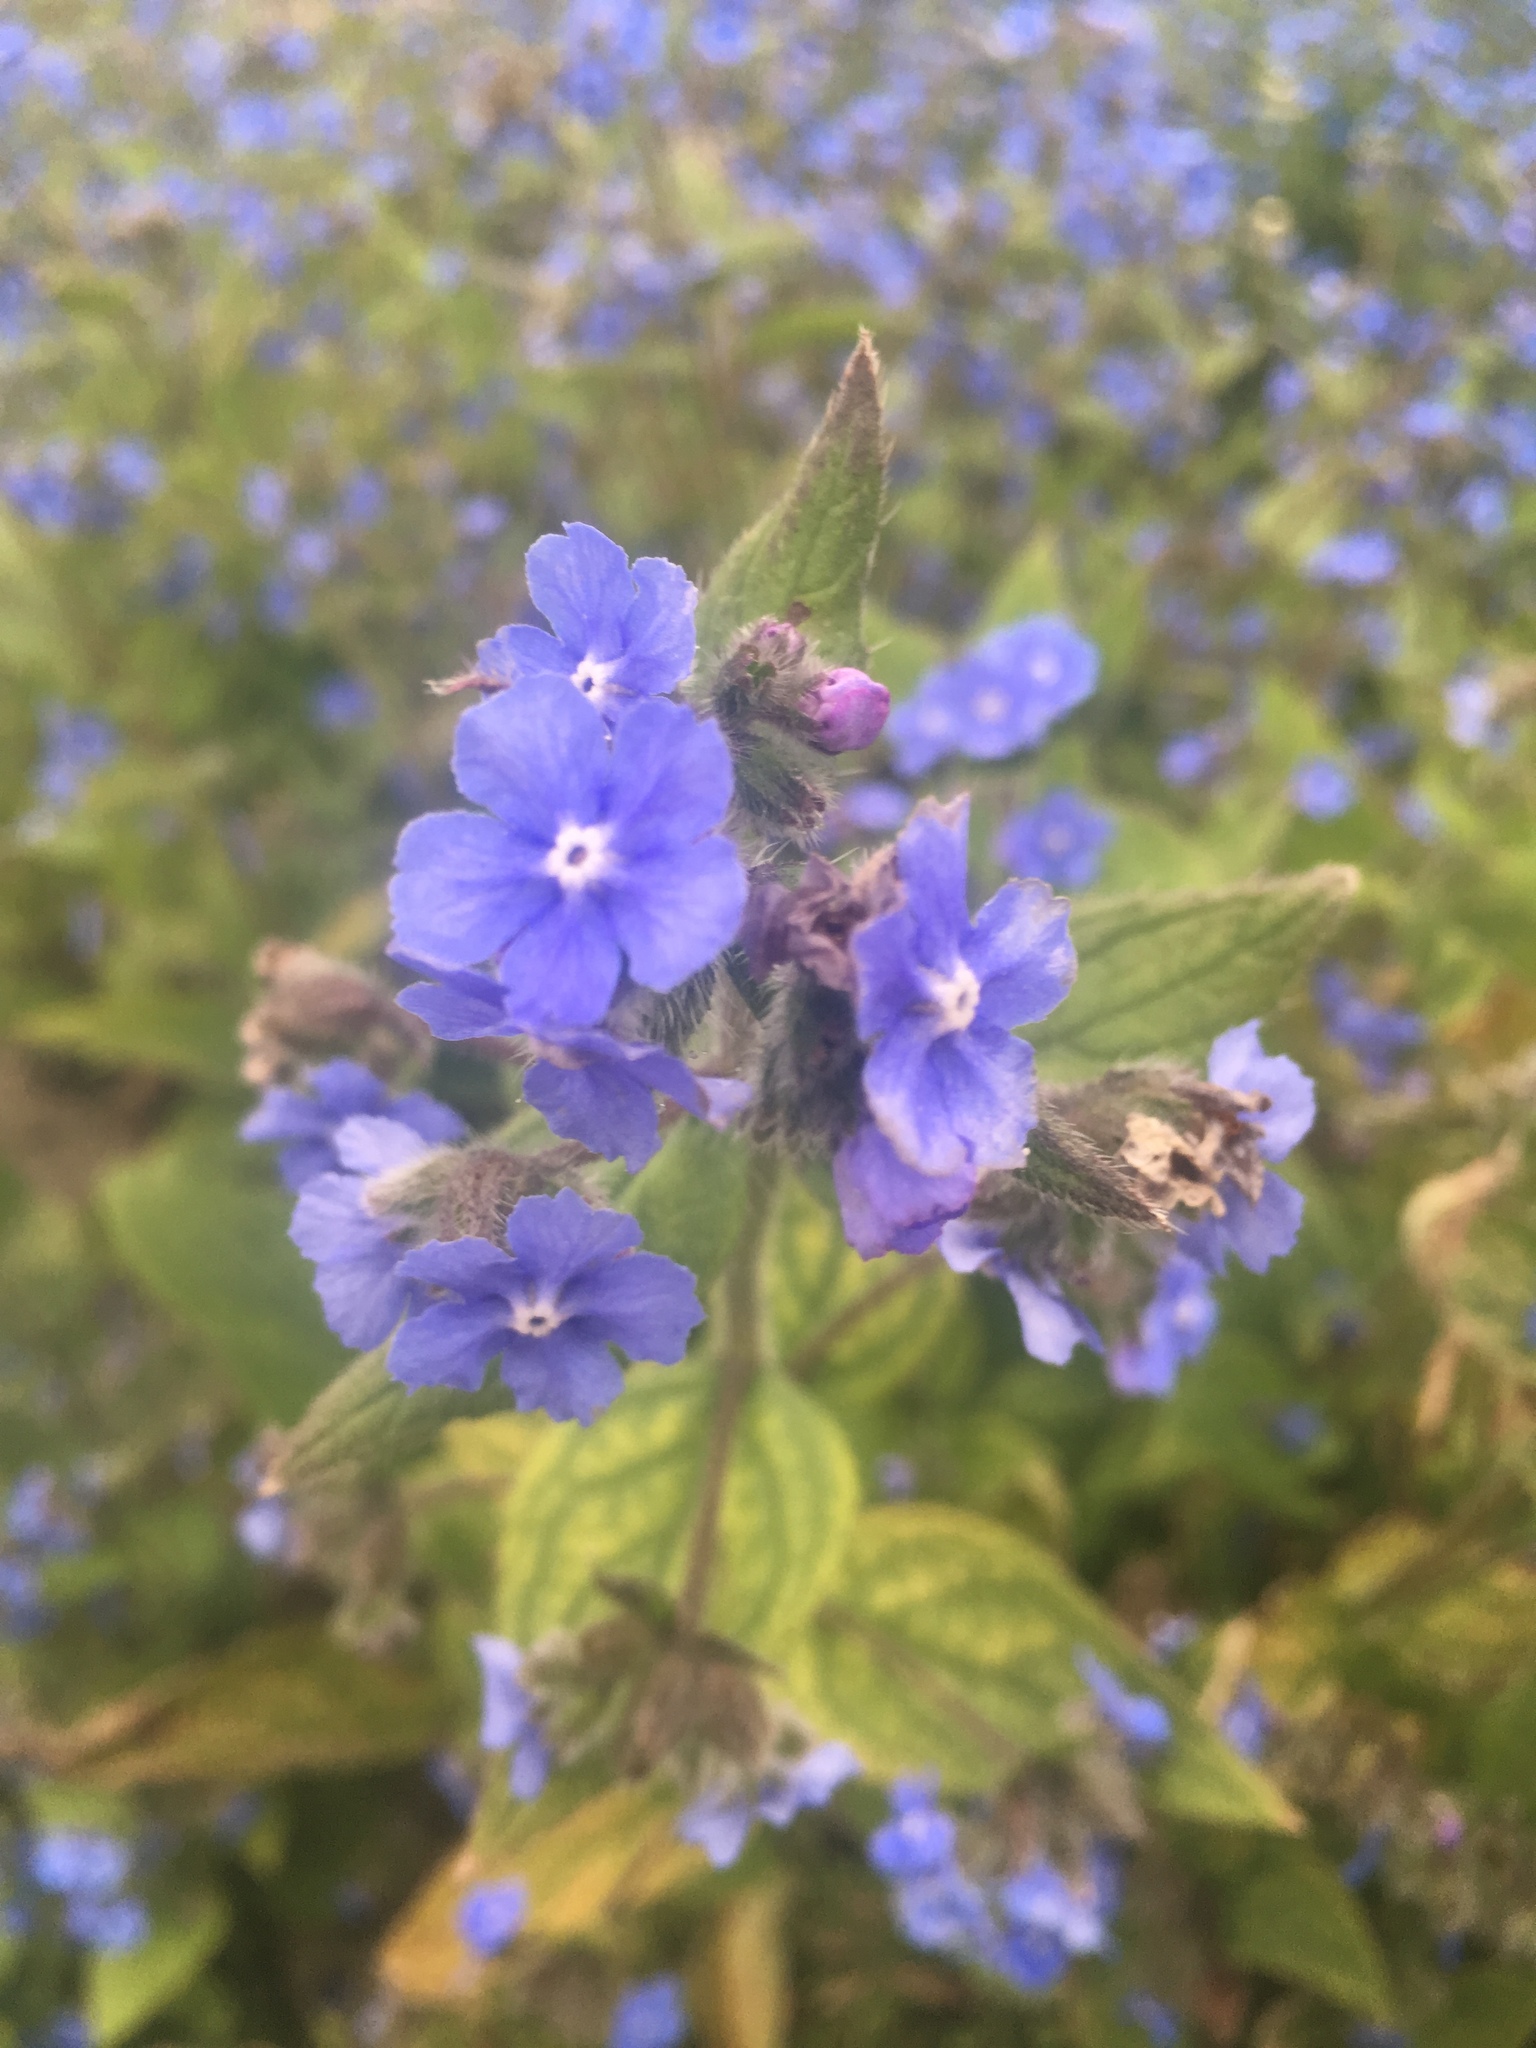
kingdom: Plantae
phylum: Tracheophyta
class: Magnoliopsida
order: Boraginales
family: Boraginaceae
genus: Pentaglottis
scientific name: Pentaglottis sempervirens
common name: Green alkanet
